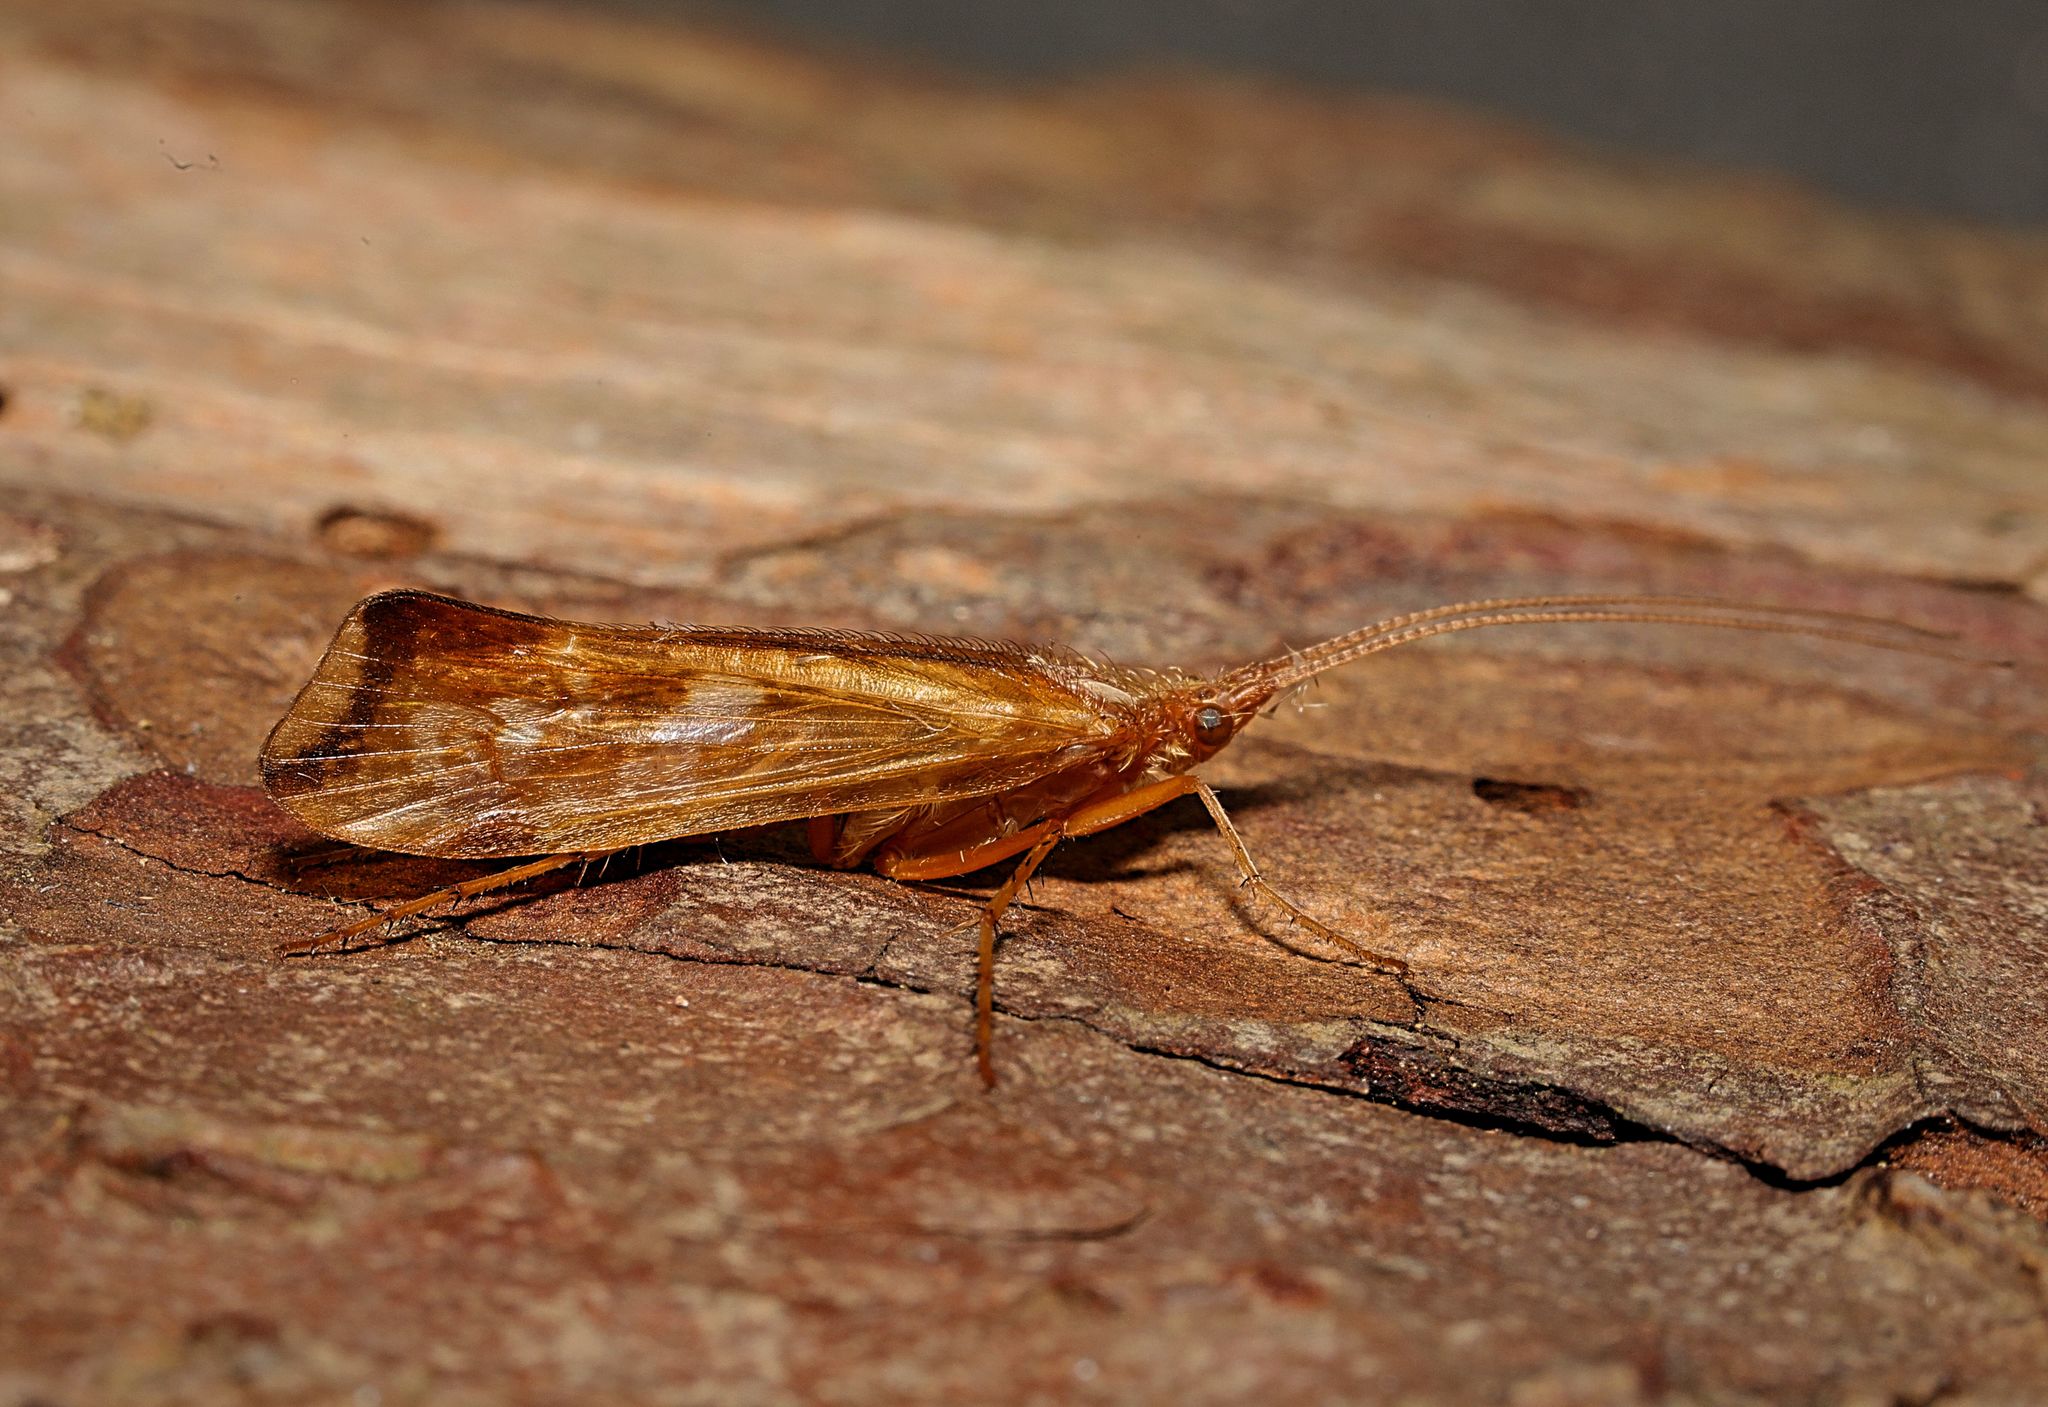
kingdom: Animalia
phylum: Arthropoda
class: Insecta
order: Trichoptera
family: Limnephilidae
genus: Limnephilus
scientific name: Limnephilus lunatus
